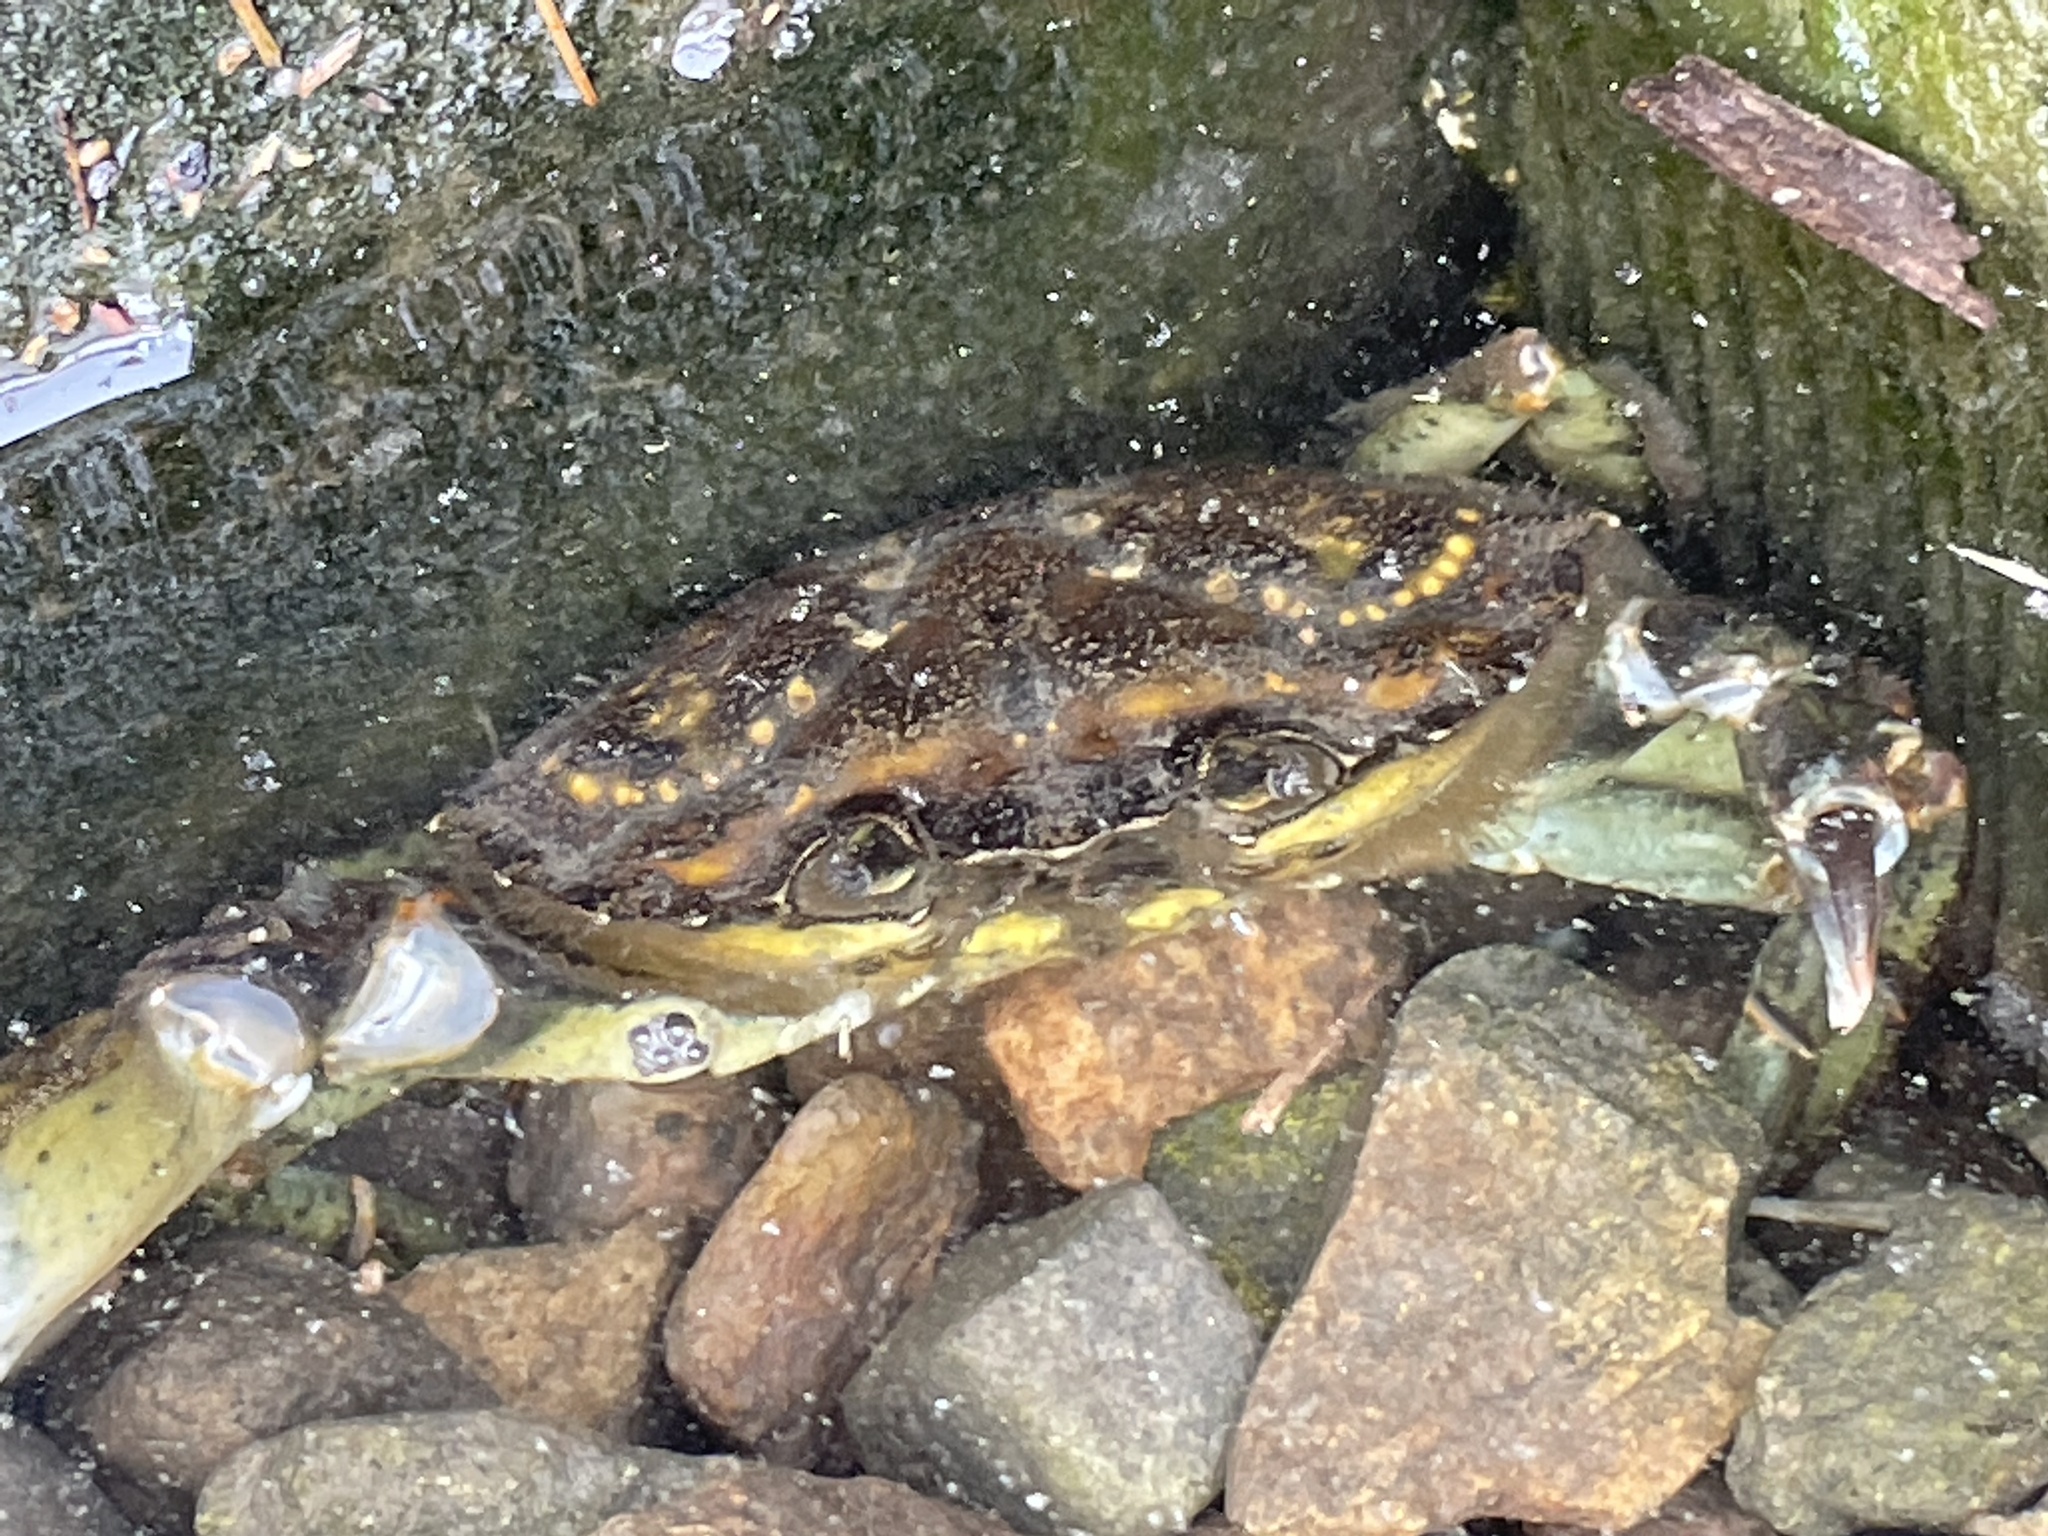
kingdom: Animalia
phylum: Arthropoda
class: Malacostraca
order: Decapoda
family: Carcinidae
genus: Carcinus
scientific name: Carcinus maenas
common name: European green crab
